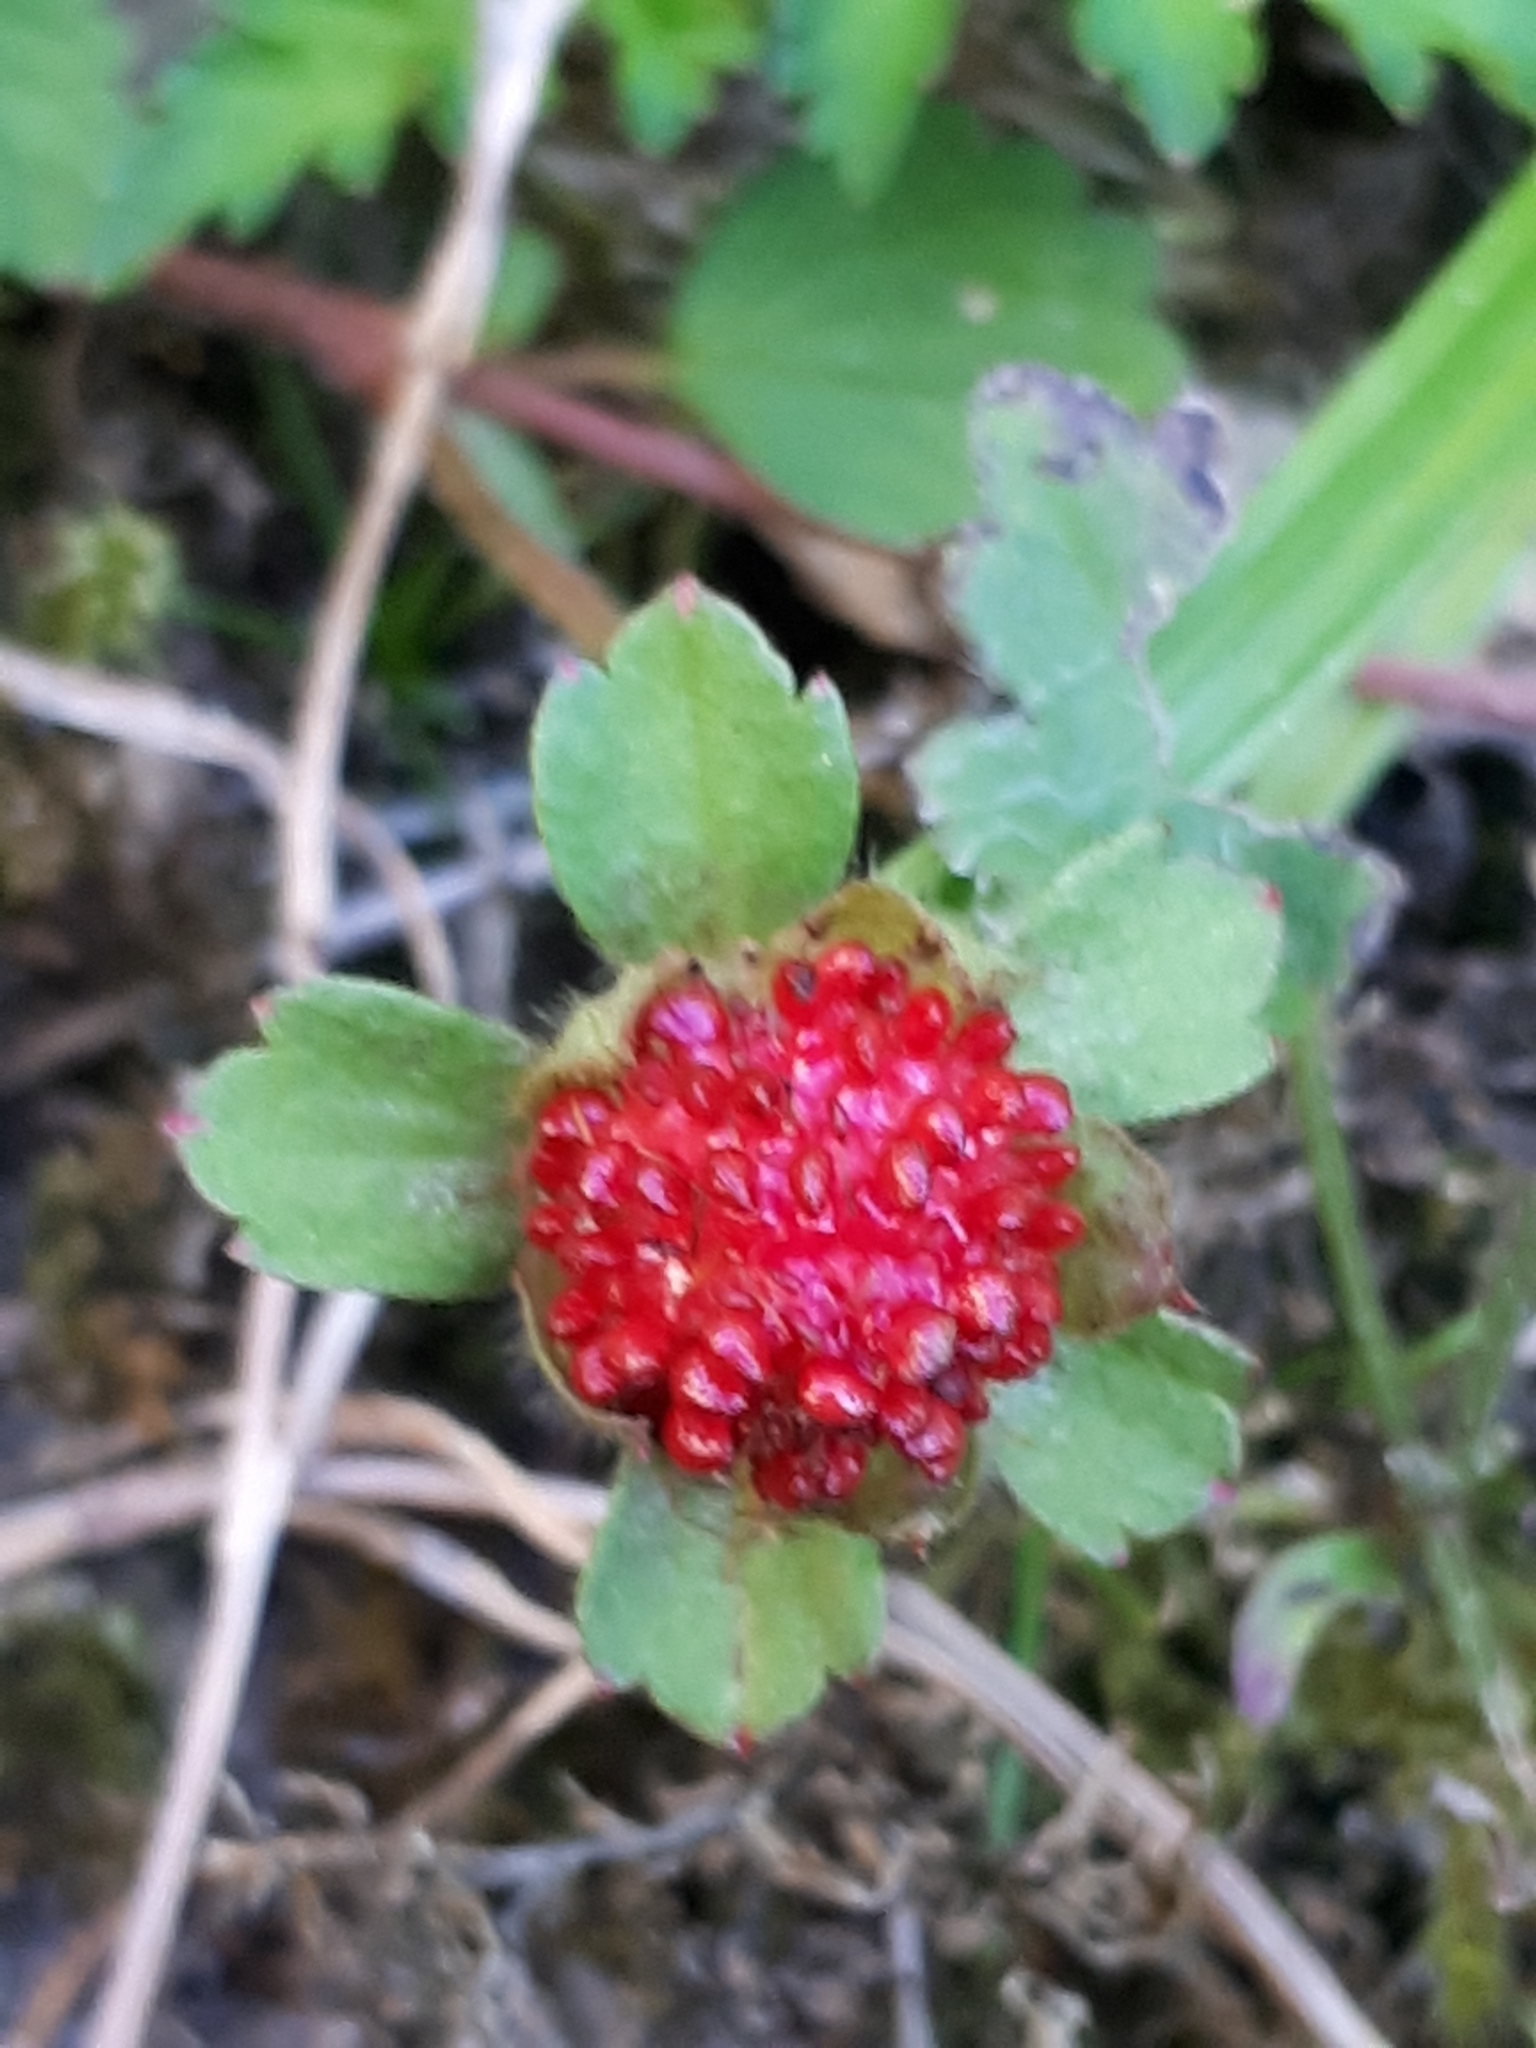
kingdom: Plantae
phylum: Tracheophyta
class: Magnoliopsida
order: Rosales
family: Rosaceae
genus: Potentilla
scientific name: Potentilla indica
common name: Yellow-flowered strawberry
